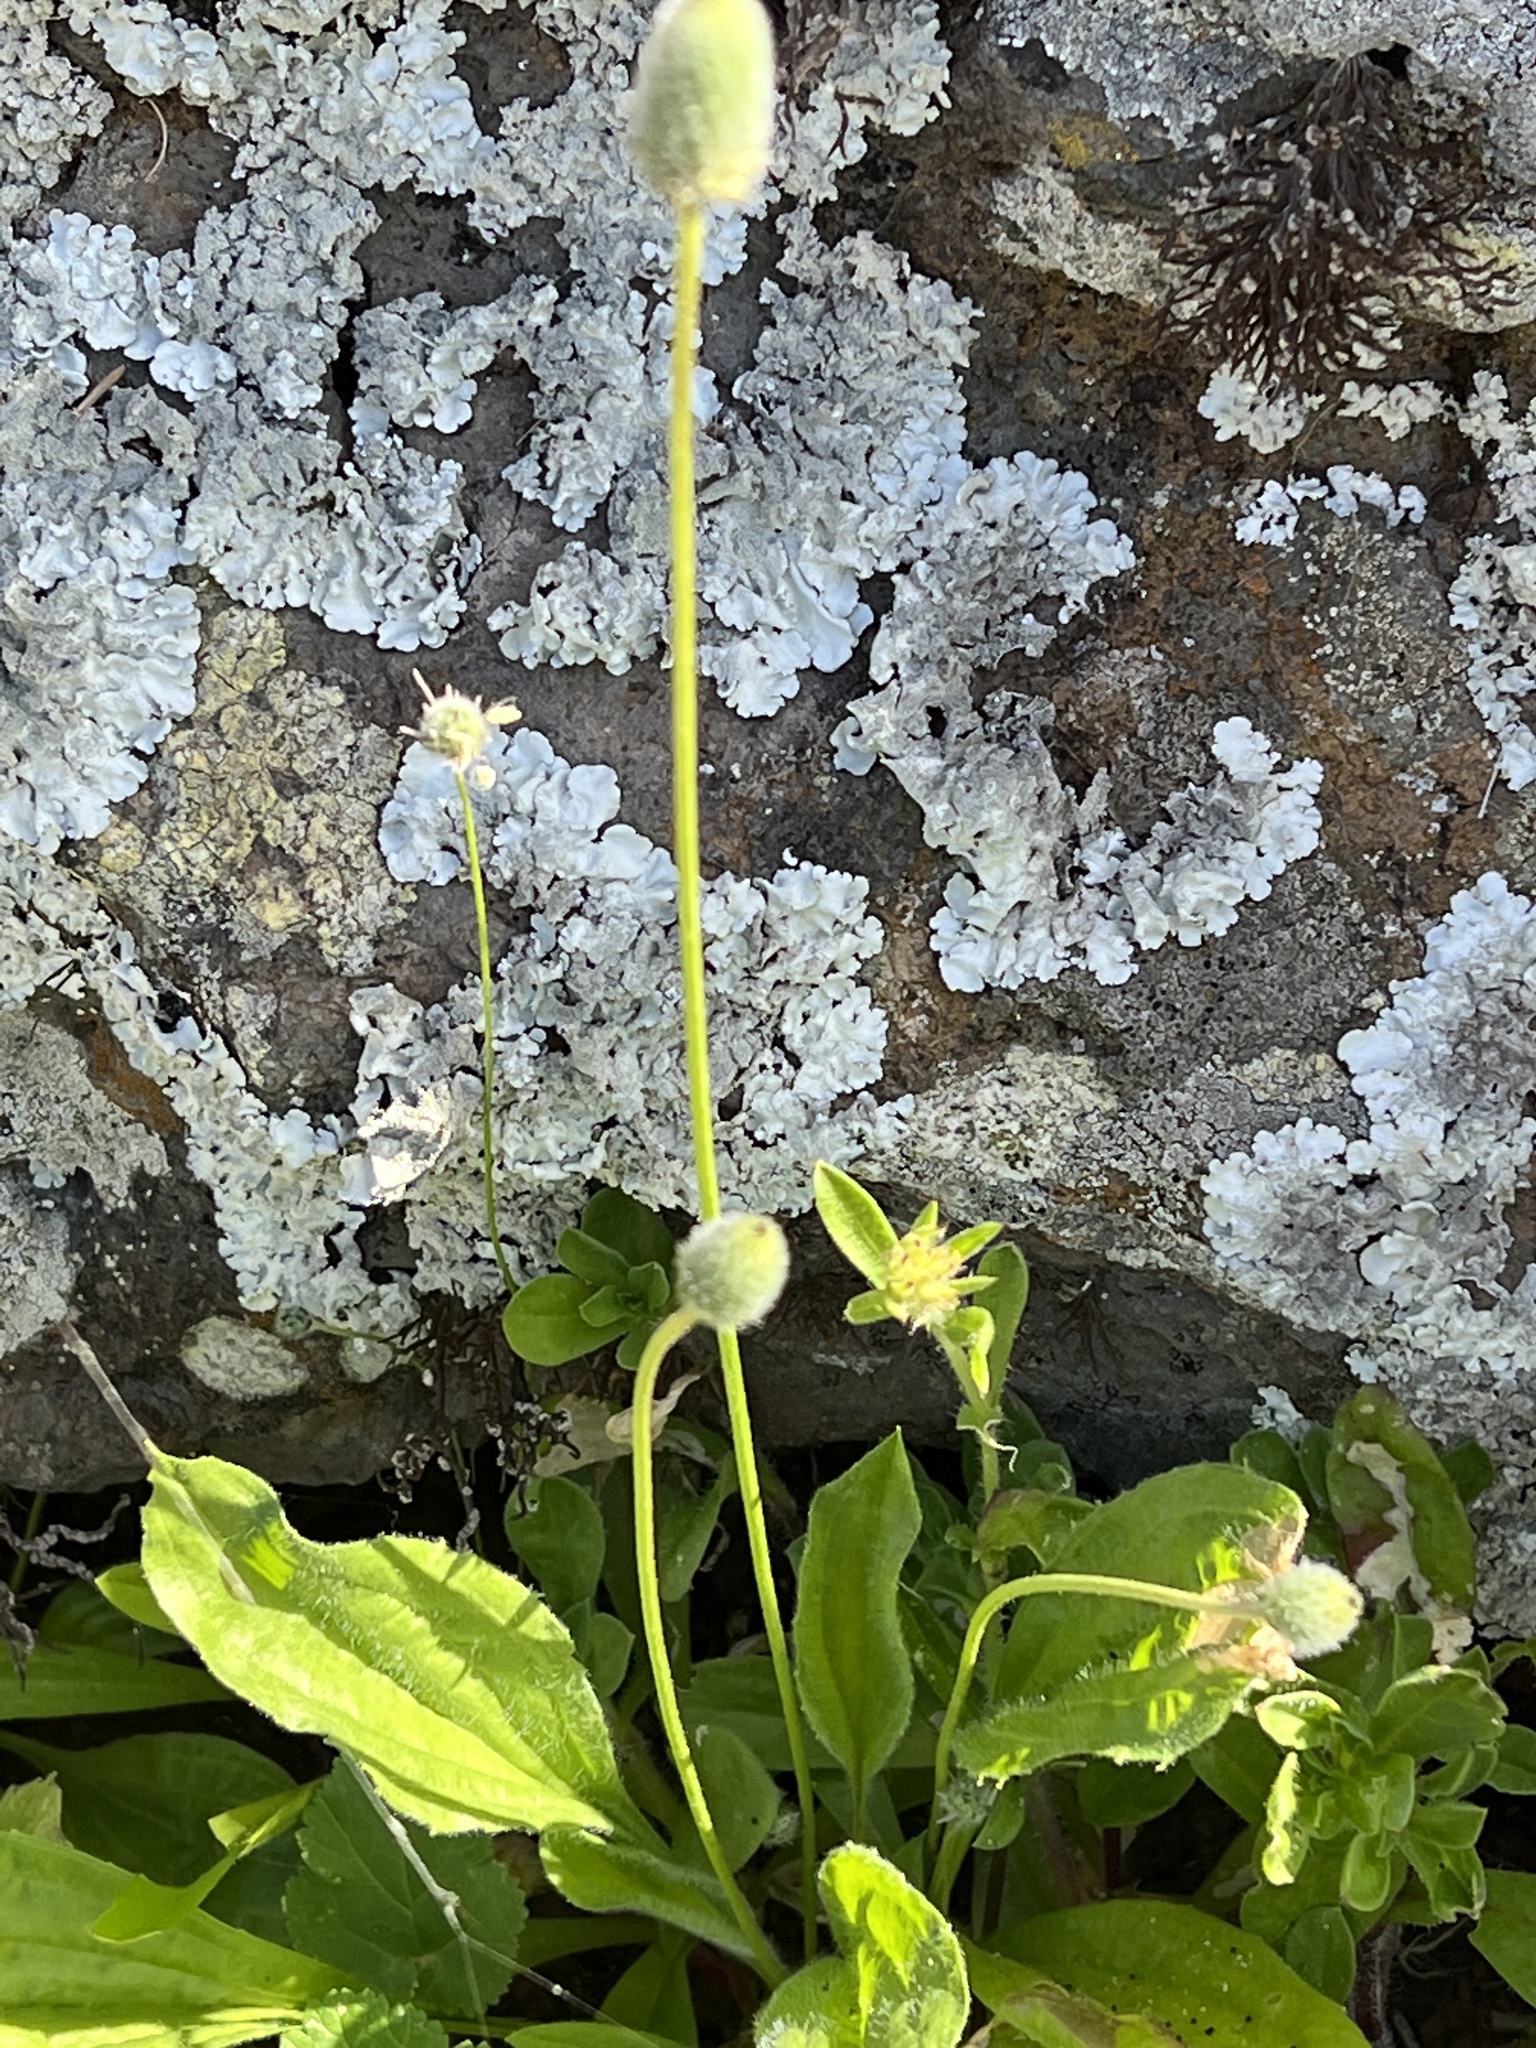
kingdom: Plantae
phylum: Tracheophyta
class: Magnoliopsida
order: Lamiales
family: Plantaginaceae
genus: Plantago
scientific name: Plantago lagopus
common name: Hare-foot plantain
